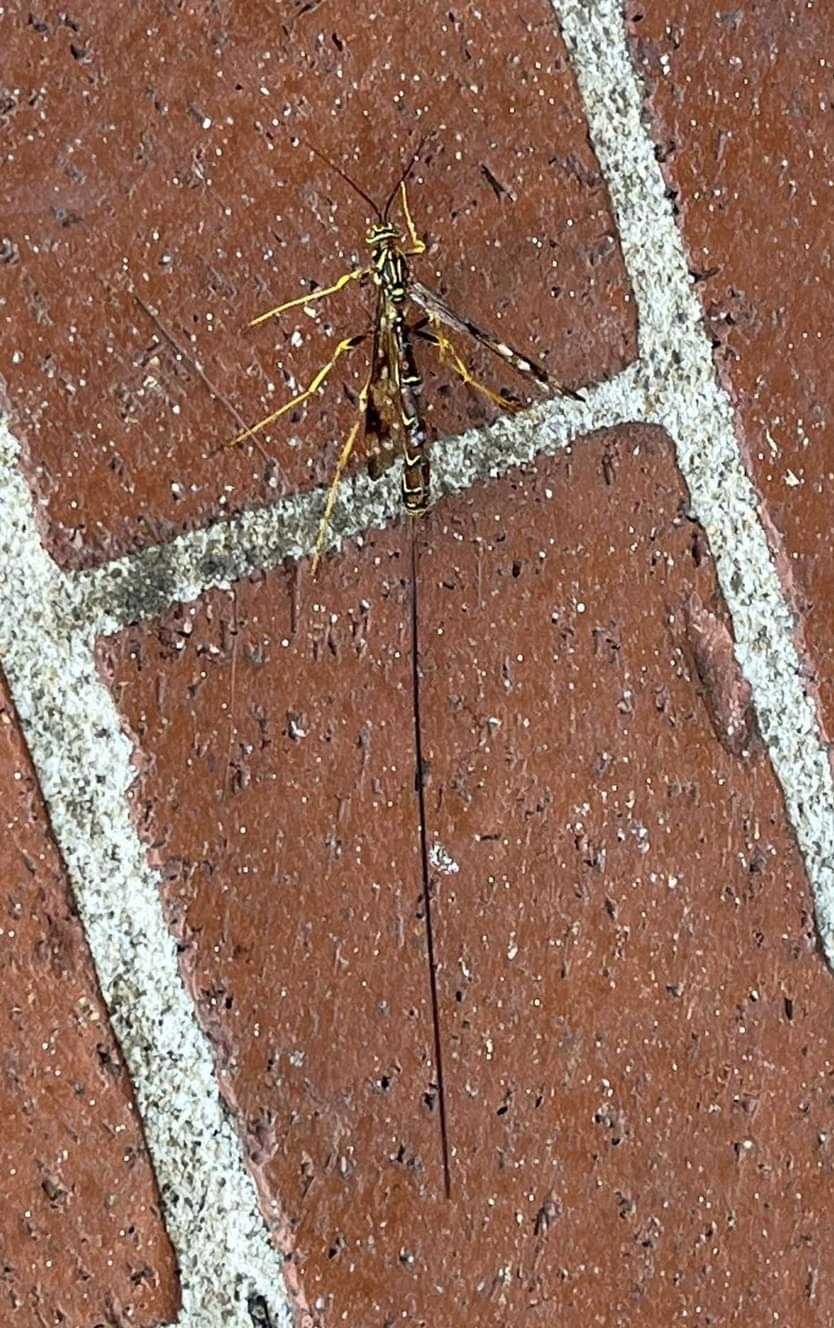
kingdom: Animalia
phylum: Arthropoda
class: Insecta
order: Hymenoptera
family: Ichneumonidae
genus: Megarhyssa
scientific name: Megarhyssa macrura
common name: Long-tailed giant ichneumonid wasp
